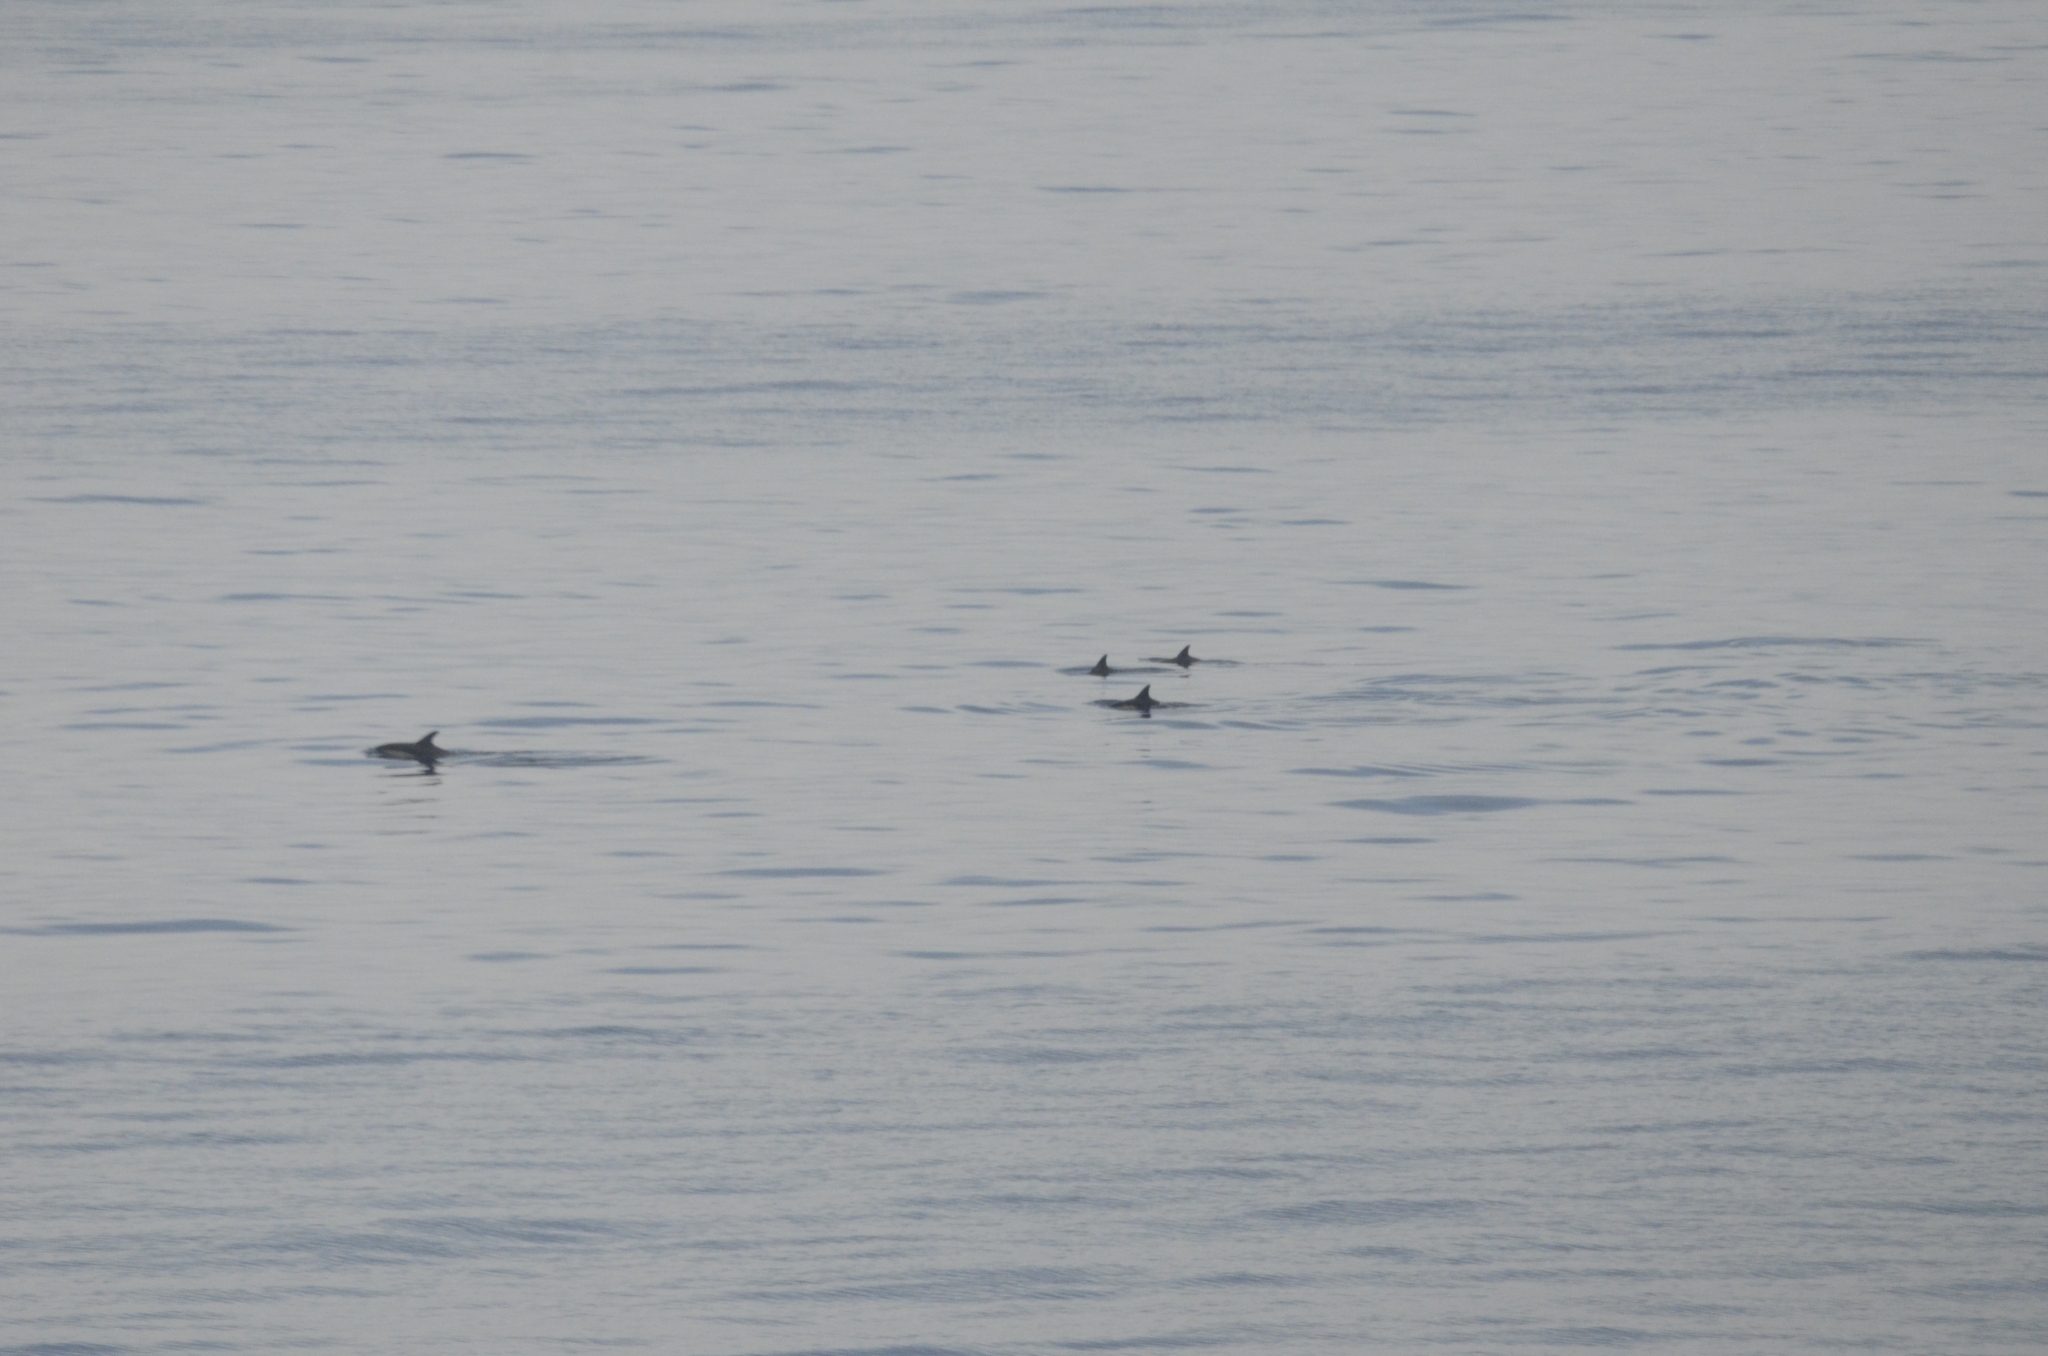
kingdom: Animalia
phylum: Chordata
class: Mammalia
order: Cetacea
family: Delphinidae
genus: Delphinus
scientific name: Delphinus delphis
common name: Common dolphin
